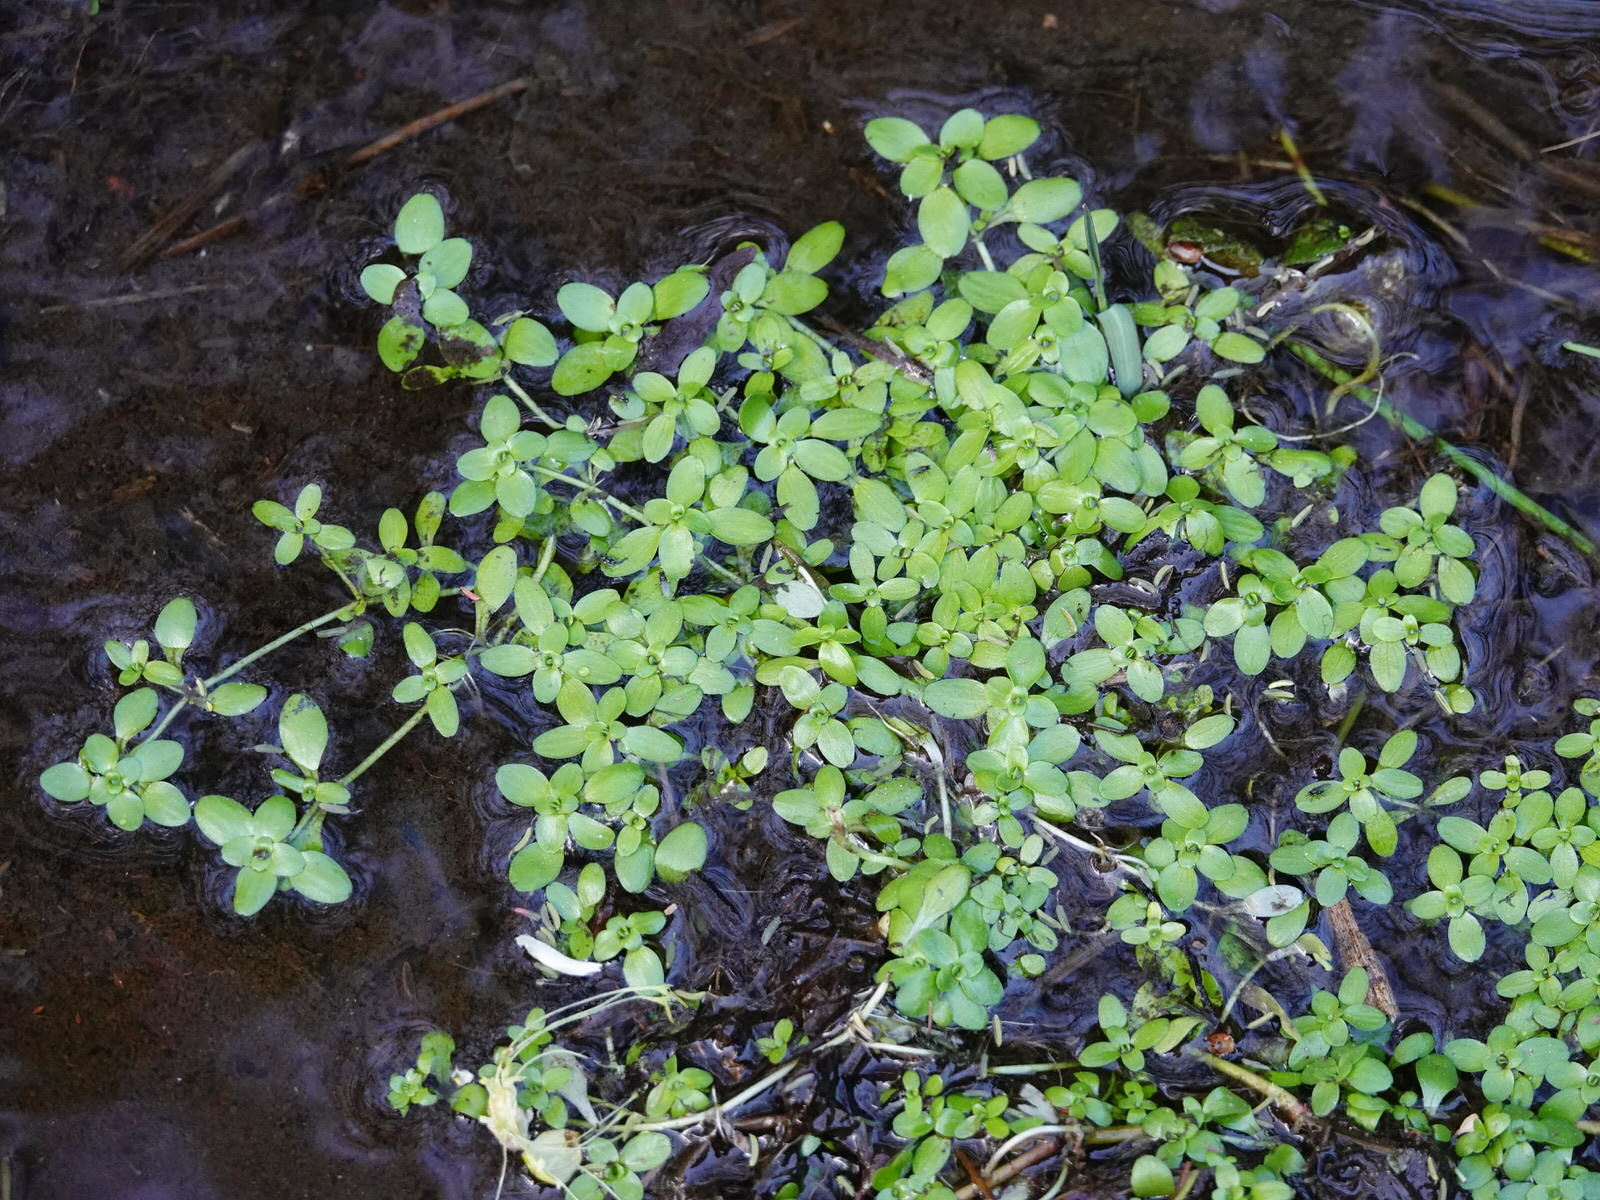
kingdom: Plantae
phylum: Tracheophyta
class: Magnoliopsida
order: Lamiales
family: Plantaginaceae
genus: Callitriche
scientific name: Callitriche stagnalis
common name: Common water-starwort
